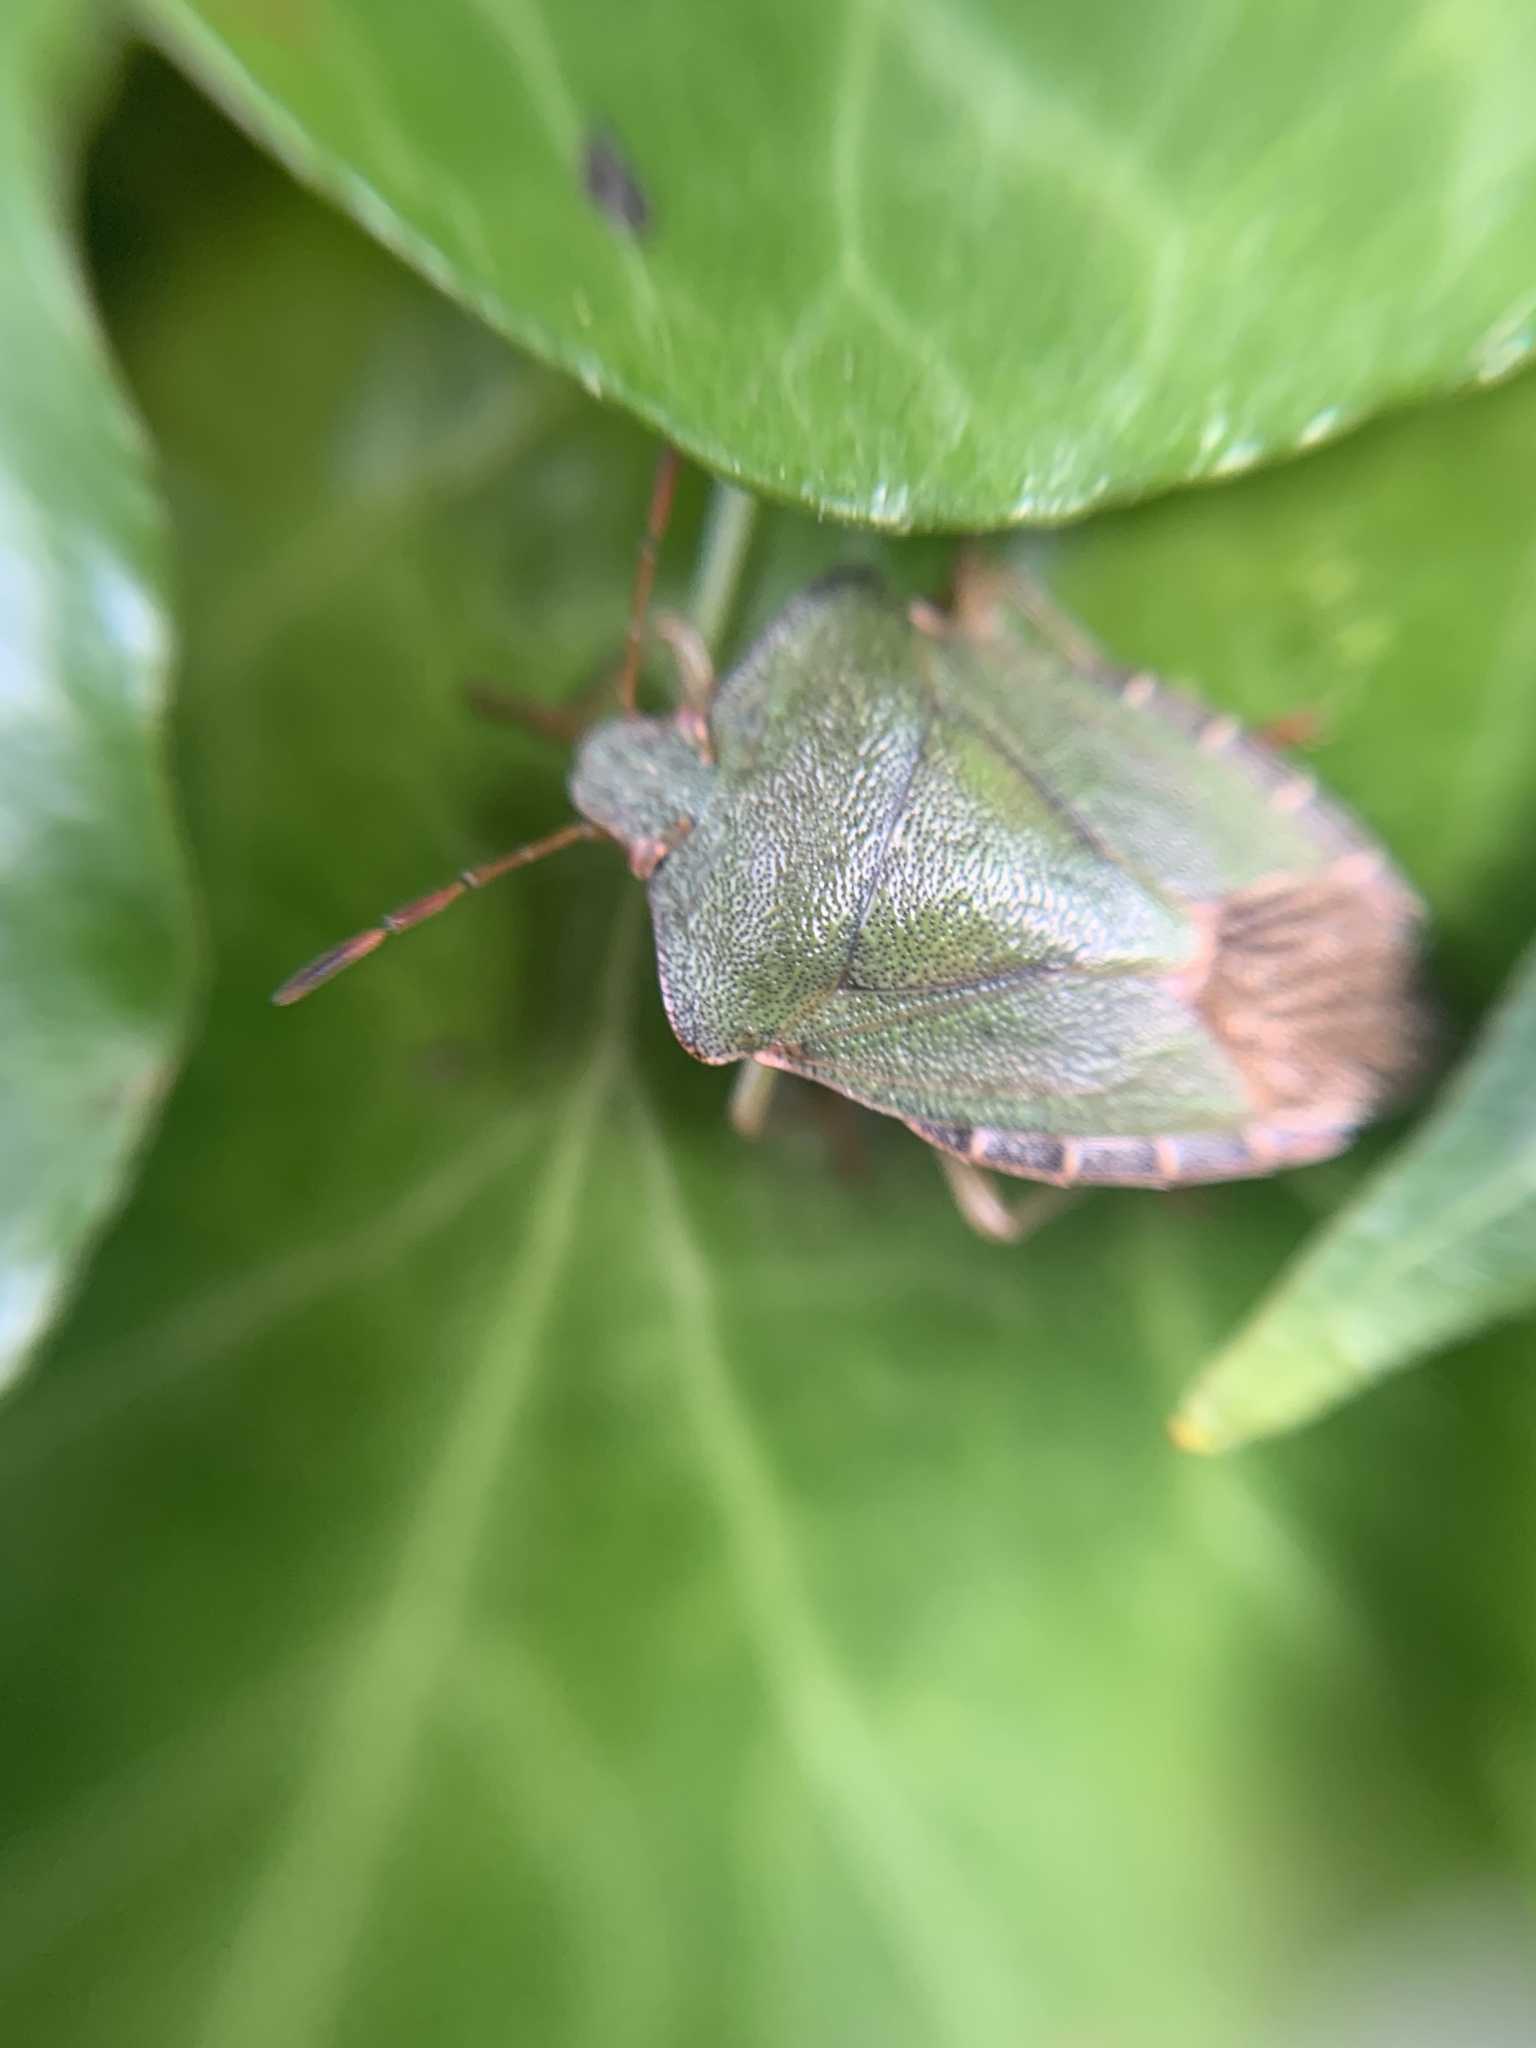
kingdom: Animalia
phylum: Arthropoda
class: Insecta
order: Hemiptera
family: Pentatomidae
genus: Palomena
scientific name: Palomena prasina
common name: Green shieldbug
